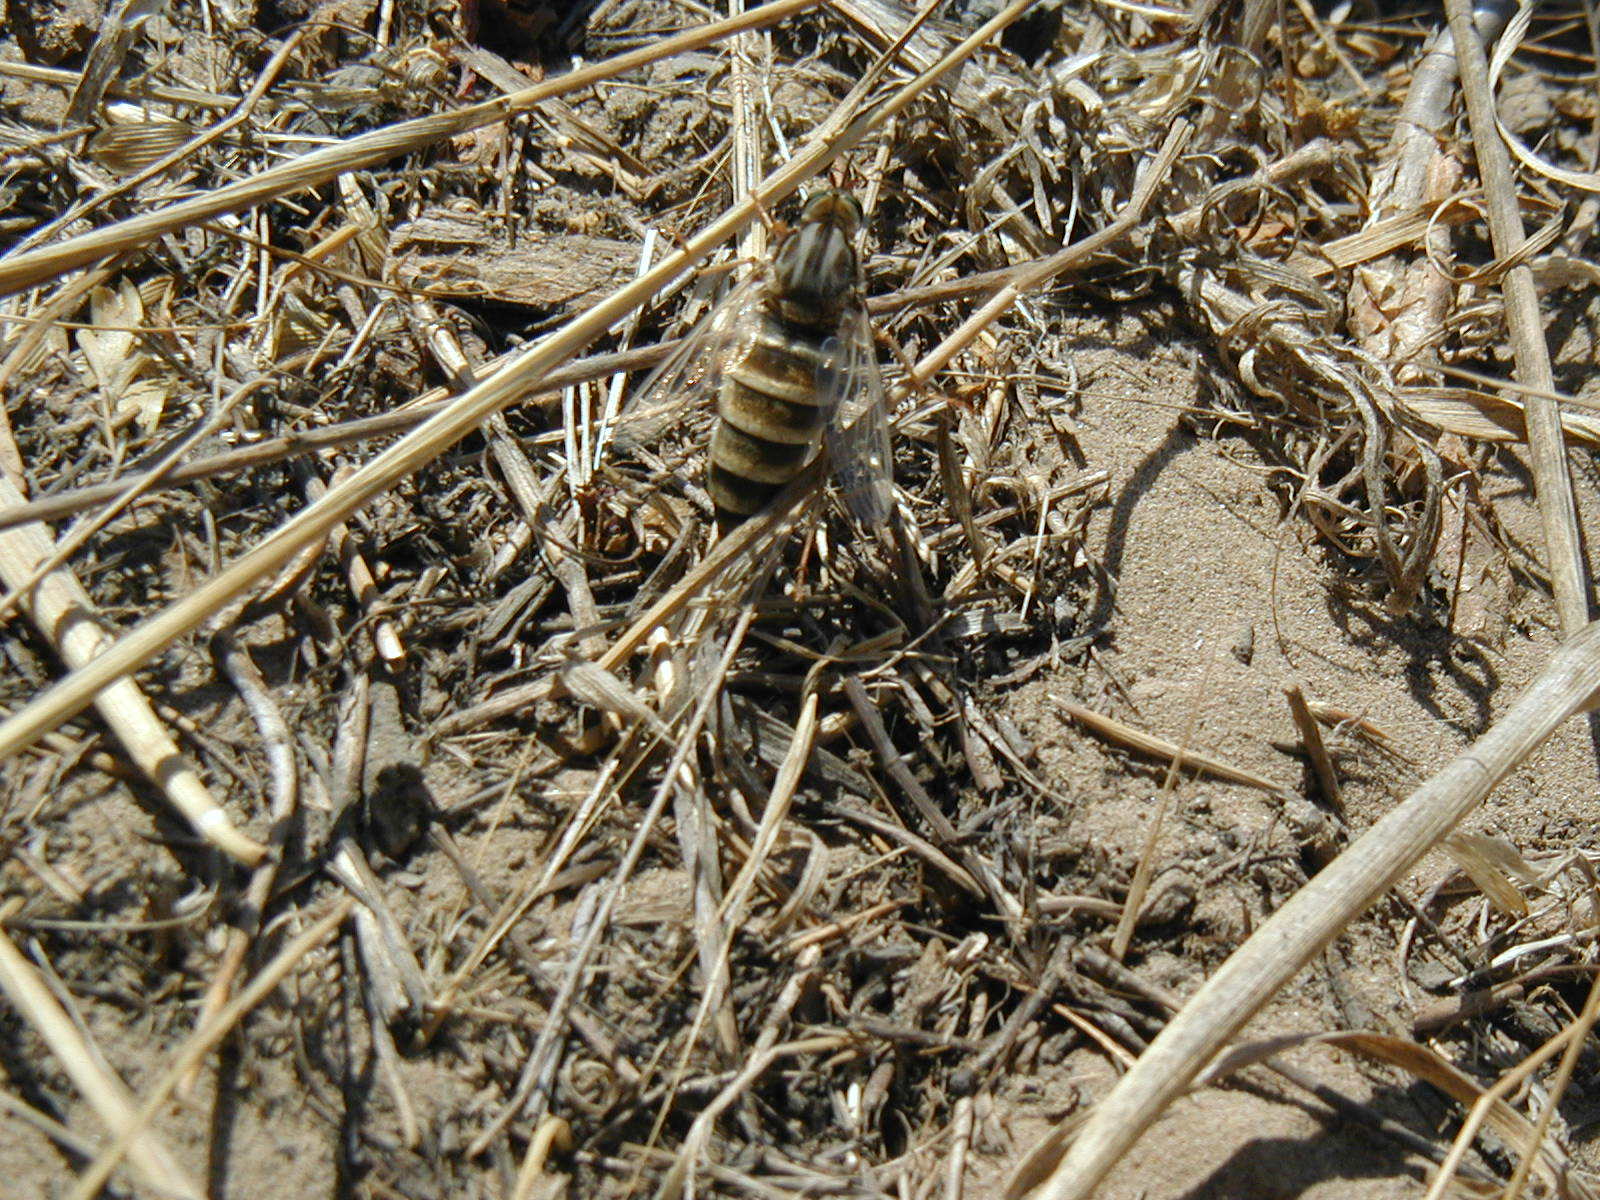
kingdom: Animalia
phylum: Arthropoda
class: Insecta
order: Diptera
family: Mydidae
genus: Rhaphiomidas
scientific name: Rhaphiomidas terminatus
